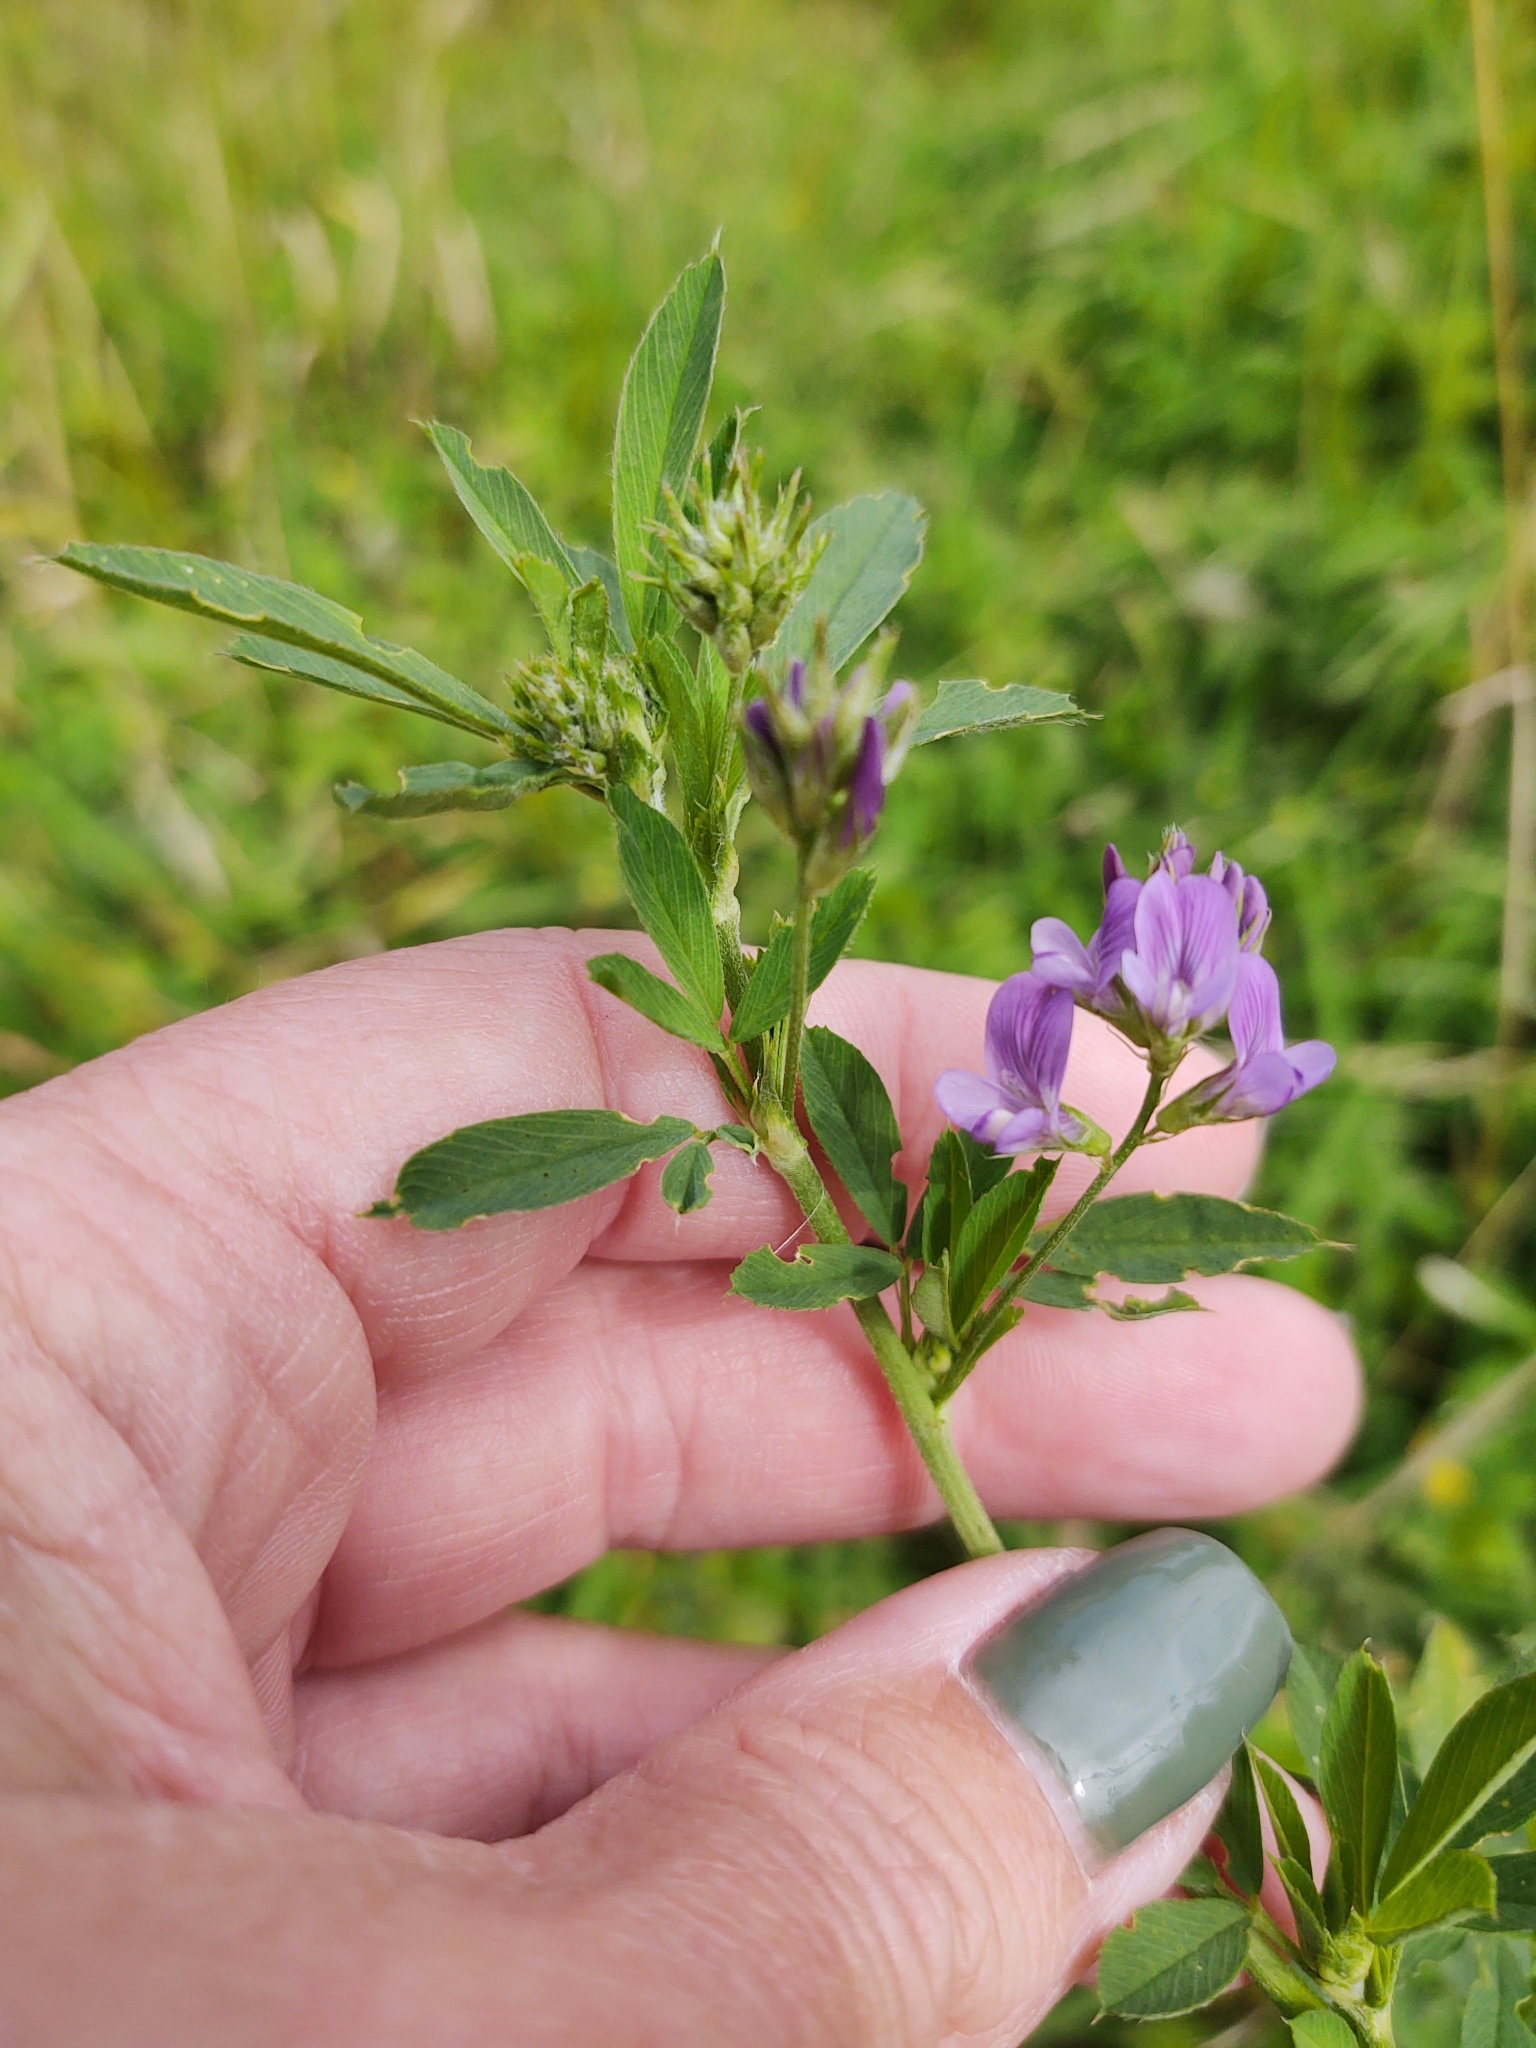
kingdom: Plantae
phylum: Tracheophyta
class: Magnoliopsida
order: Fabales
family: Fabaceae
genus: Medicago
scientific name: Medicago sativa
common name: Alfalfa
